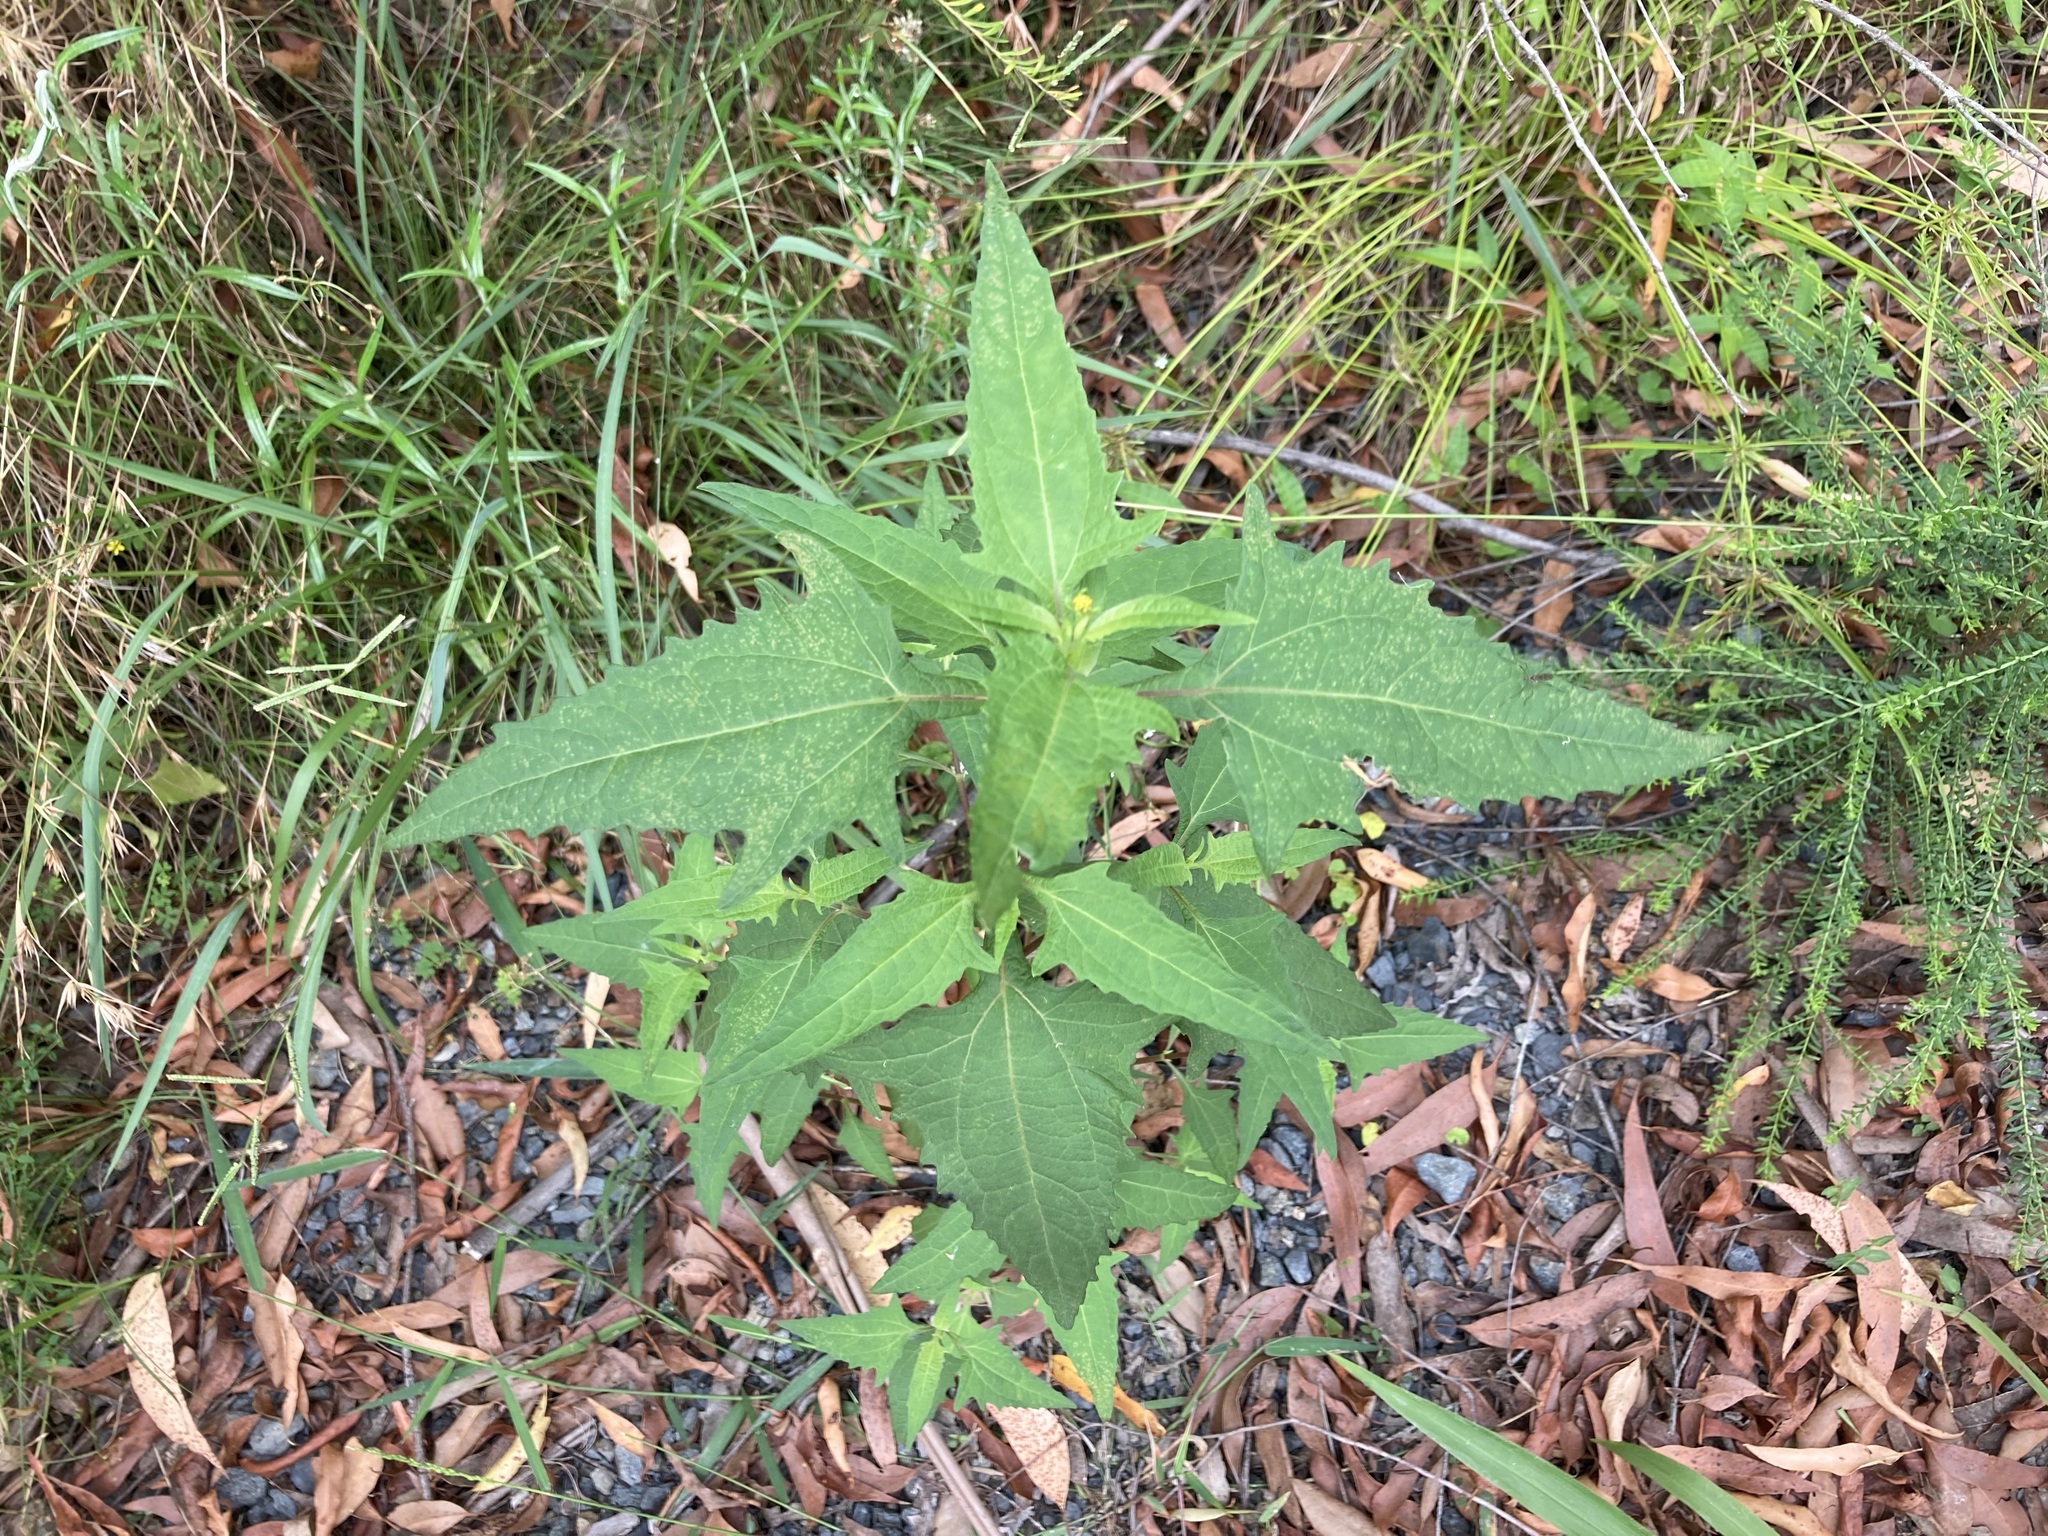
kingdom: Plantae
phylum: Tracheophyta
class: Magnoliopsida
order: Asterales
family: Asteraceae
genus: Sigesbeckia
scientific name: Sigesbeckia orientalis
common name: Eastern st paul's-wort
